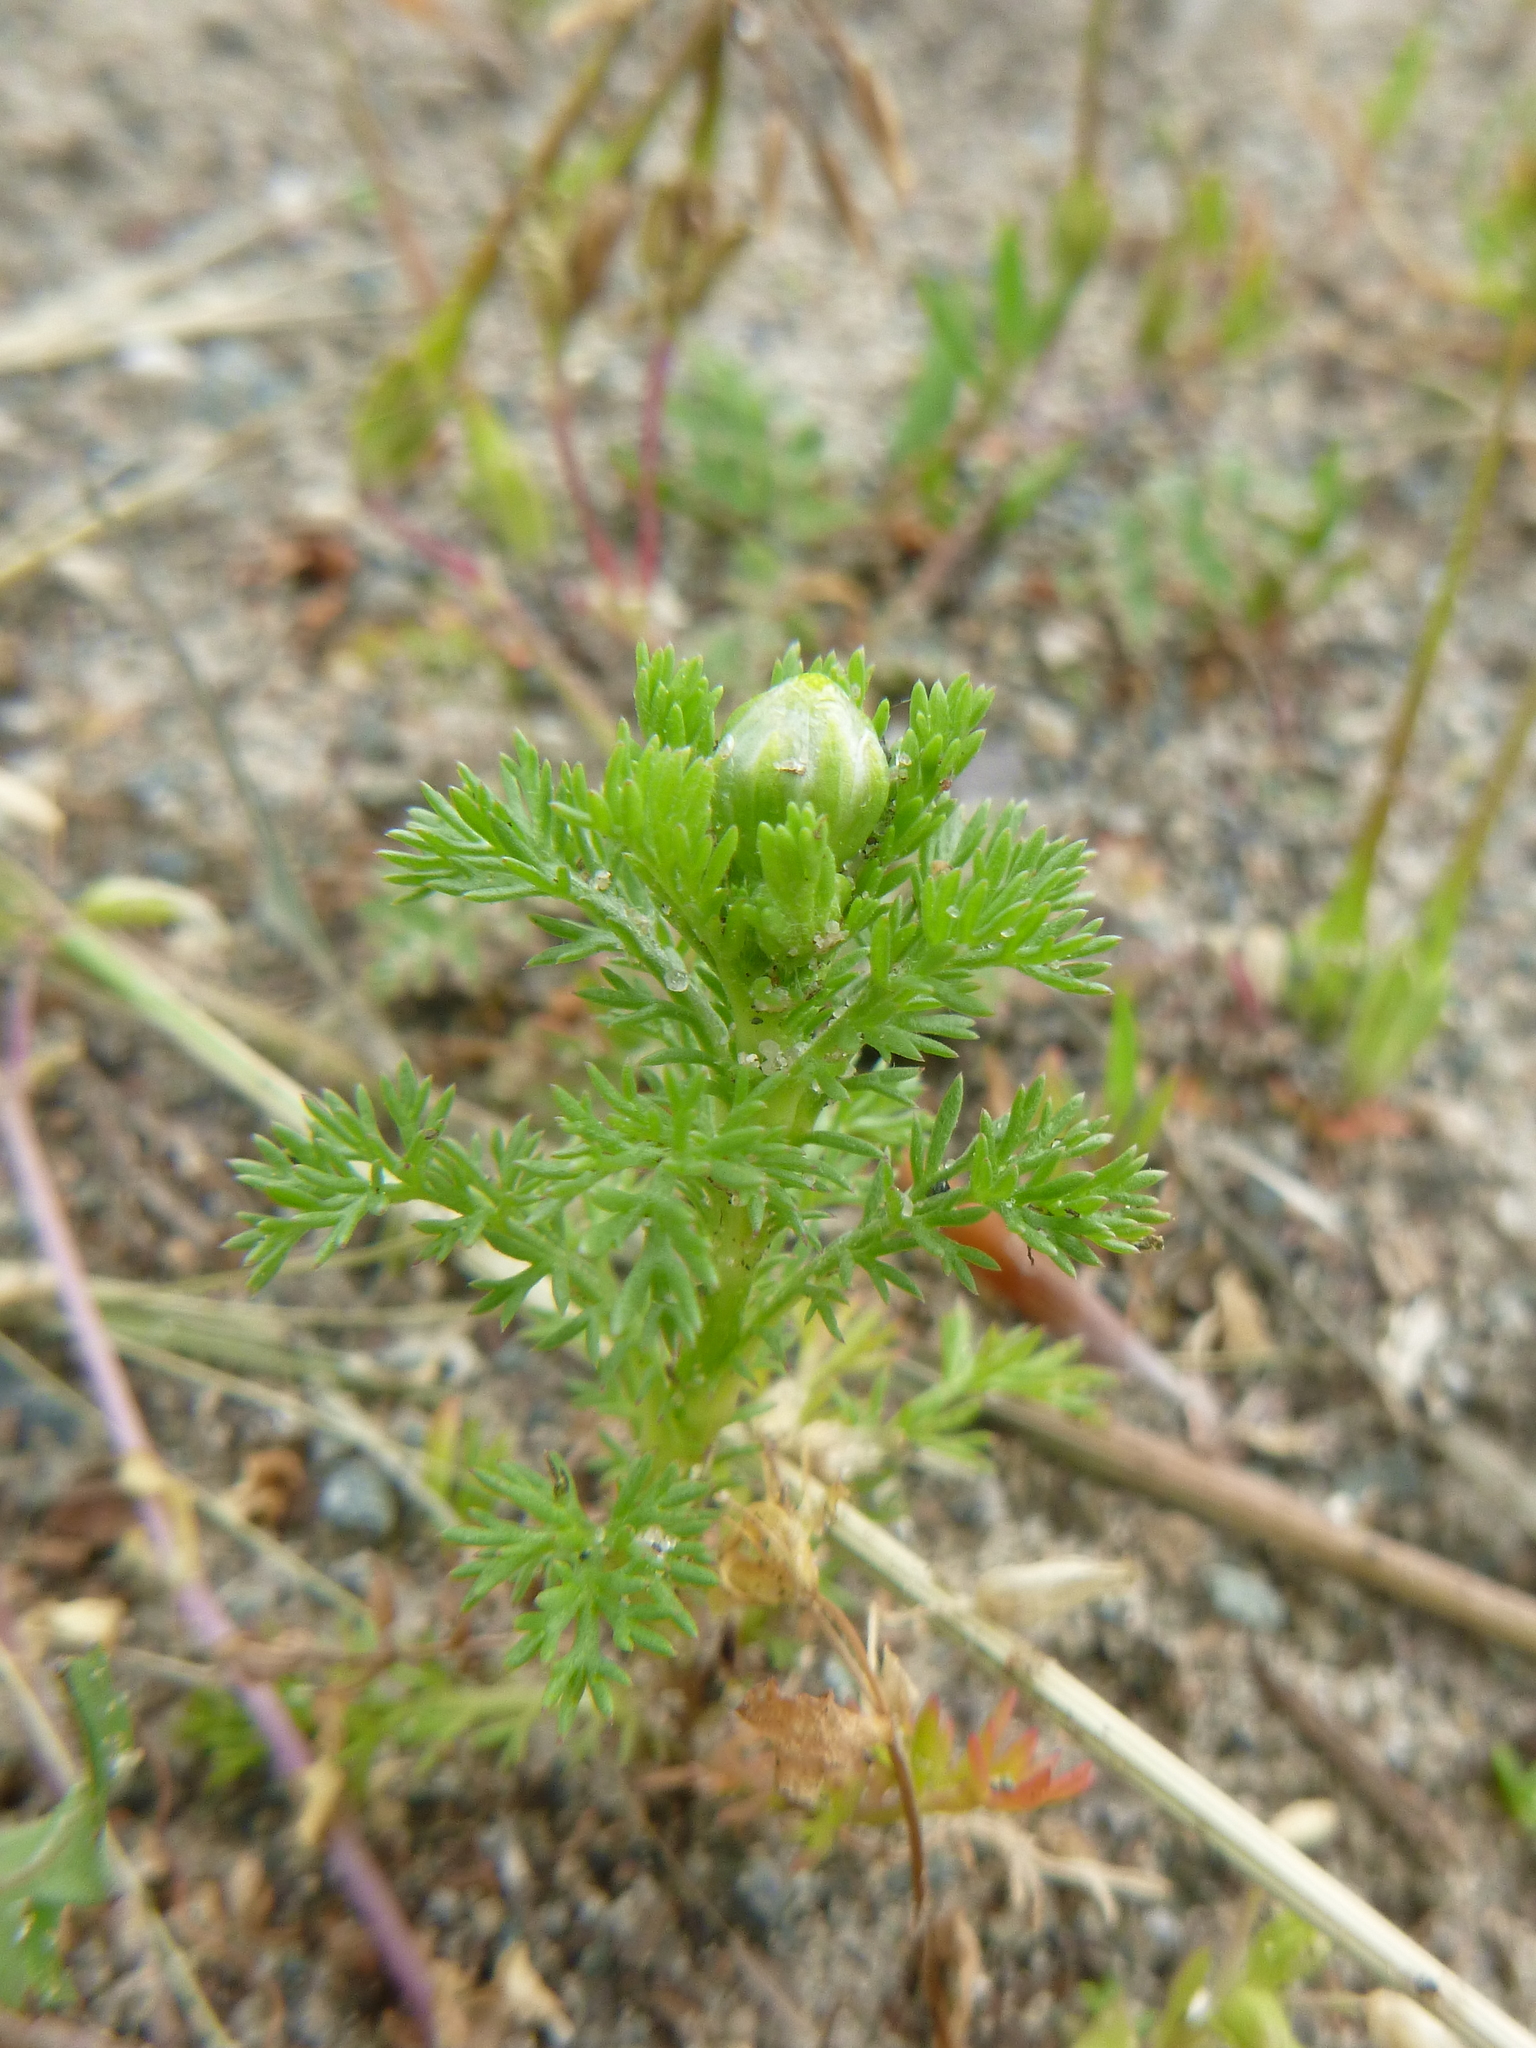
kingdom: Plantae
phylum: Tracheophyta
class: Magnoliopsida
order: Asterales
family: Asteraceae
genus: Matricaria
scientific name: Matricaria discoidea
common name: Disc mayweed
